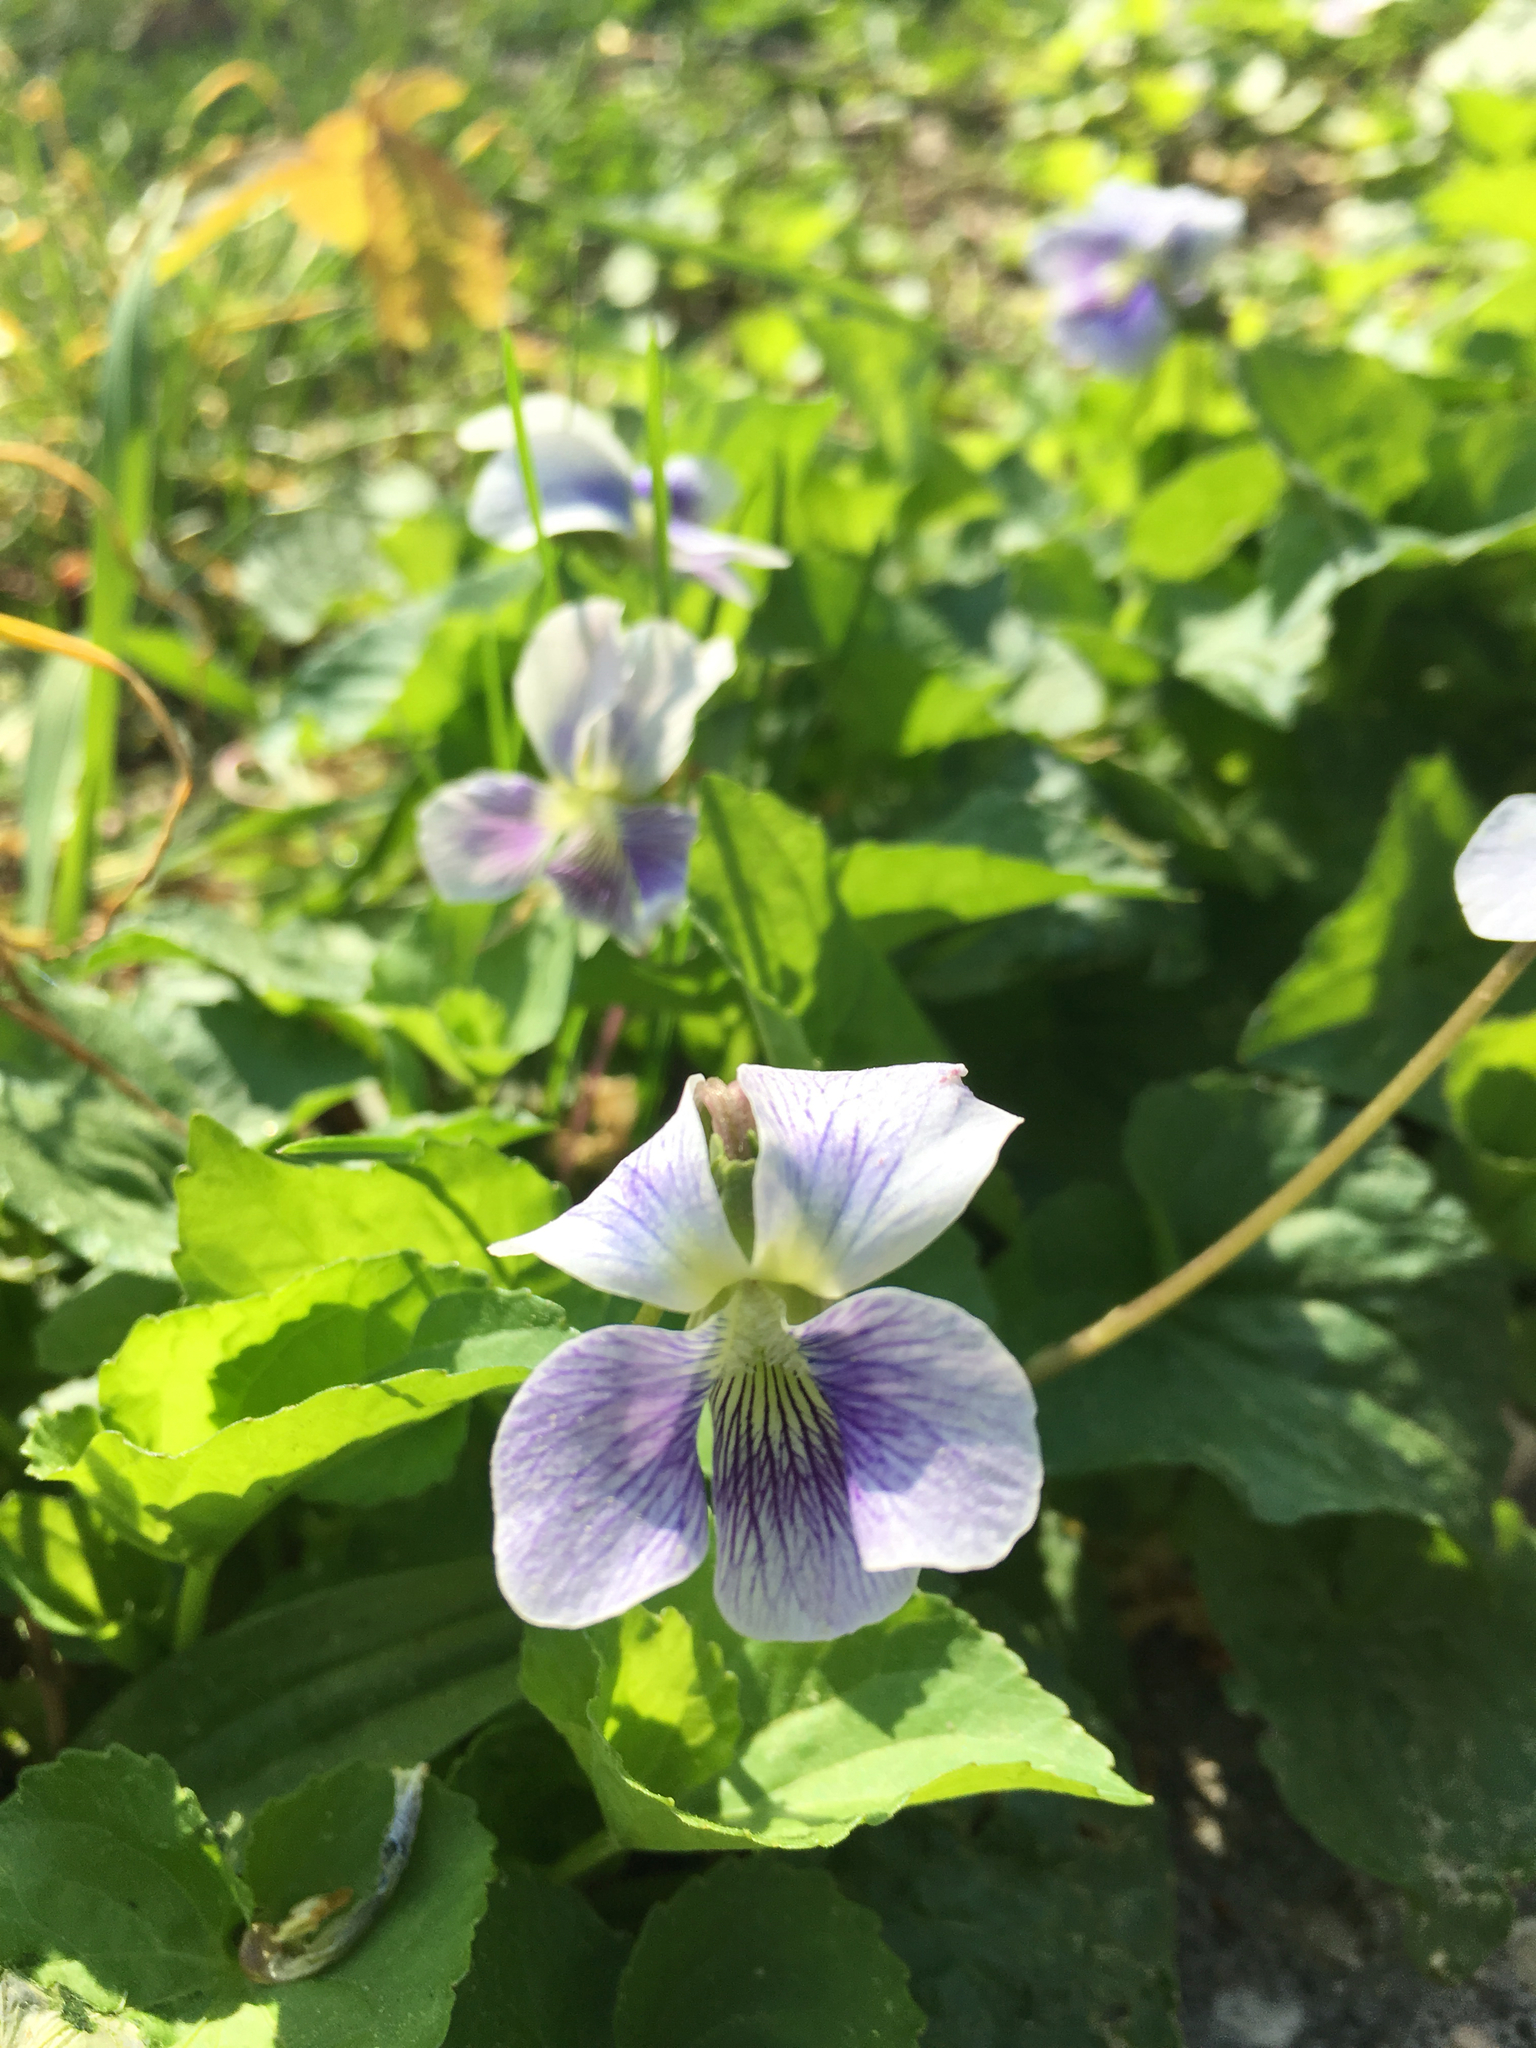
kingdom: Plantae
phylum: Tracheophyta
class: Magnoliopsida
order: Malpighiales
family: Violaceae
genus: Viola
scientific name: Viola sororia
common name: Dooryard violet
